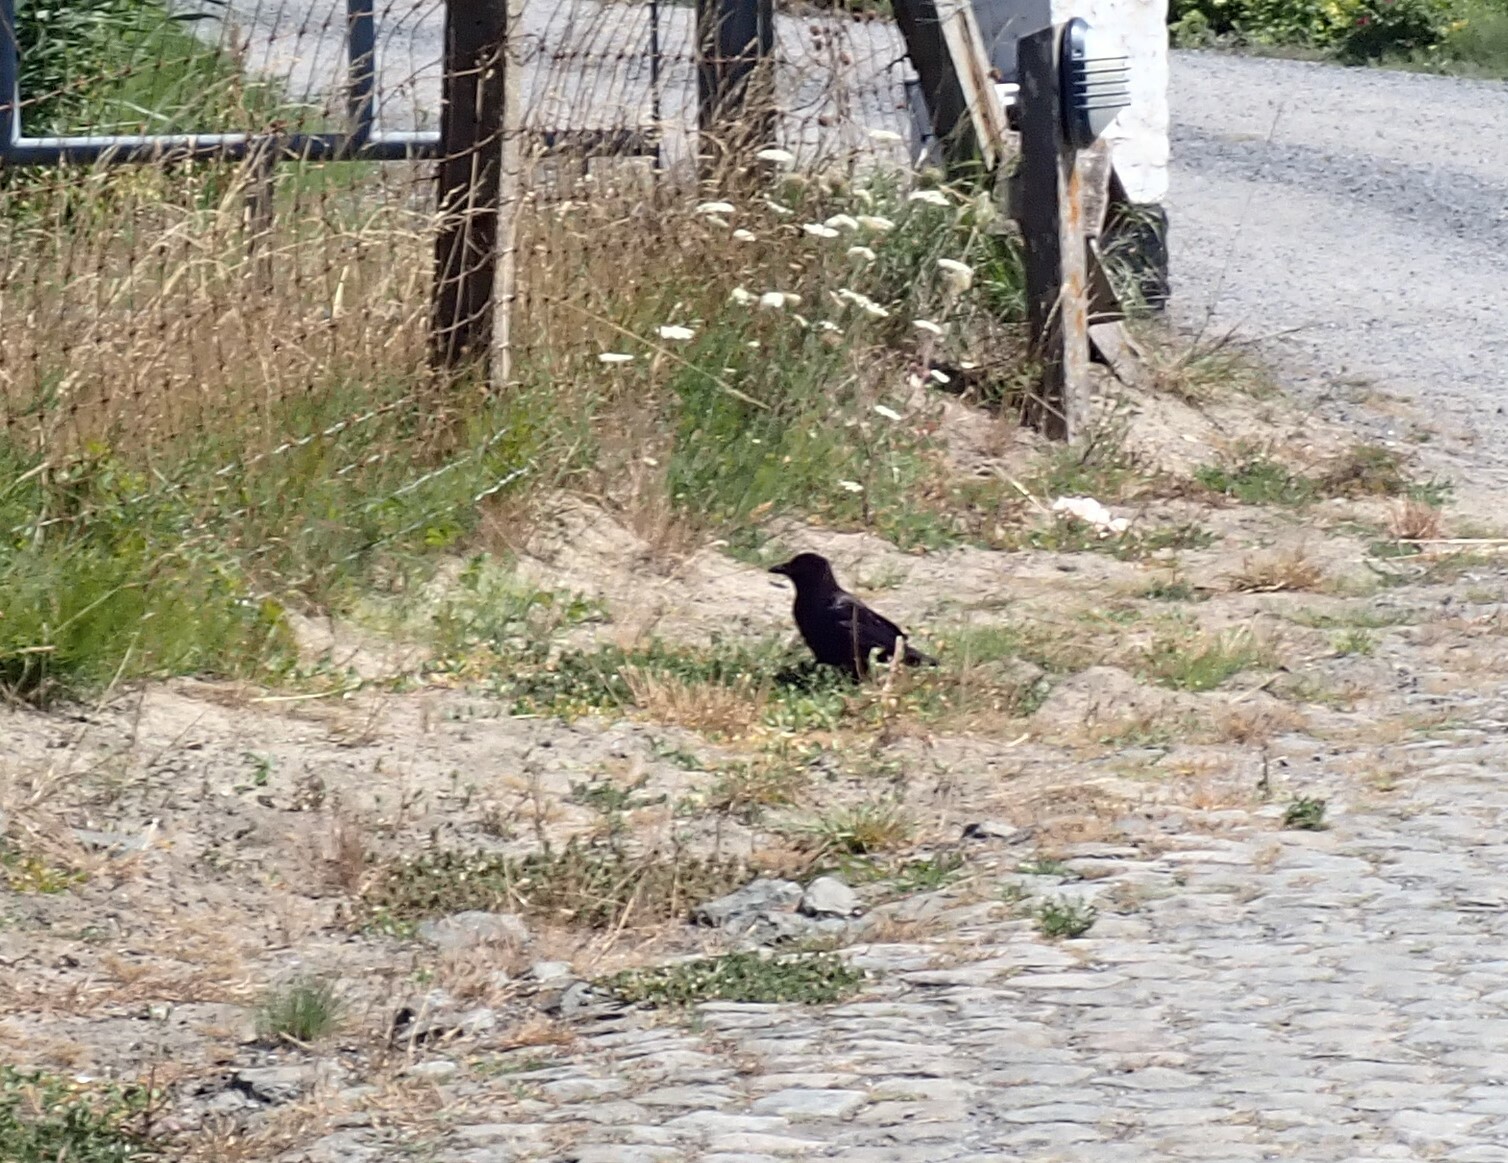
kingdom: Animalia
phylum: Chordata
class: Aves
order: Passeriformes
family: Corvidae
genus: Corvus
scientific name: Corvus corone
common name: Carrion crow
